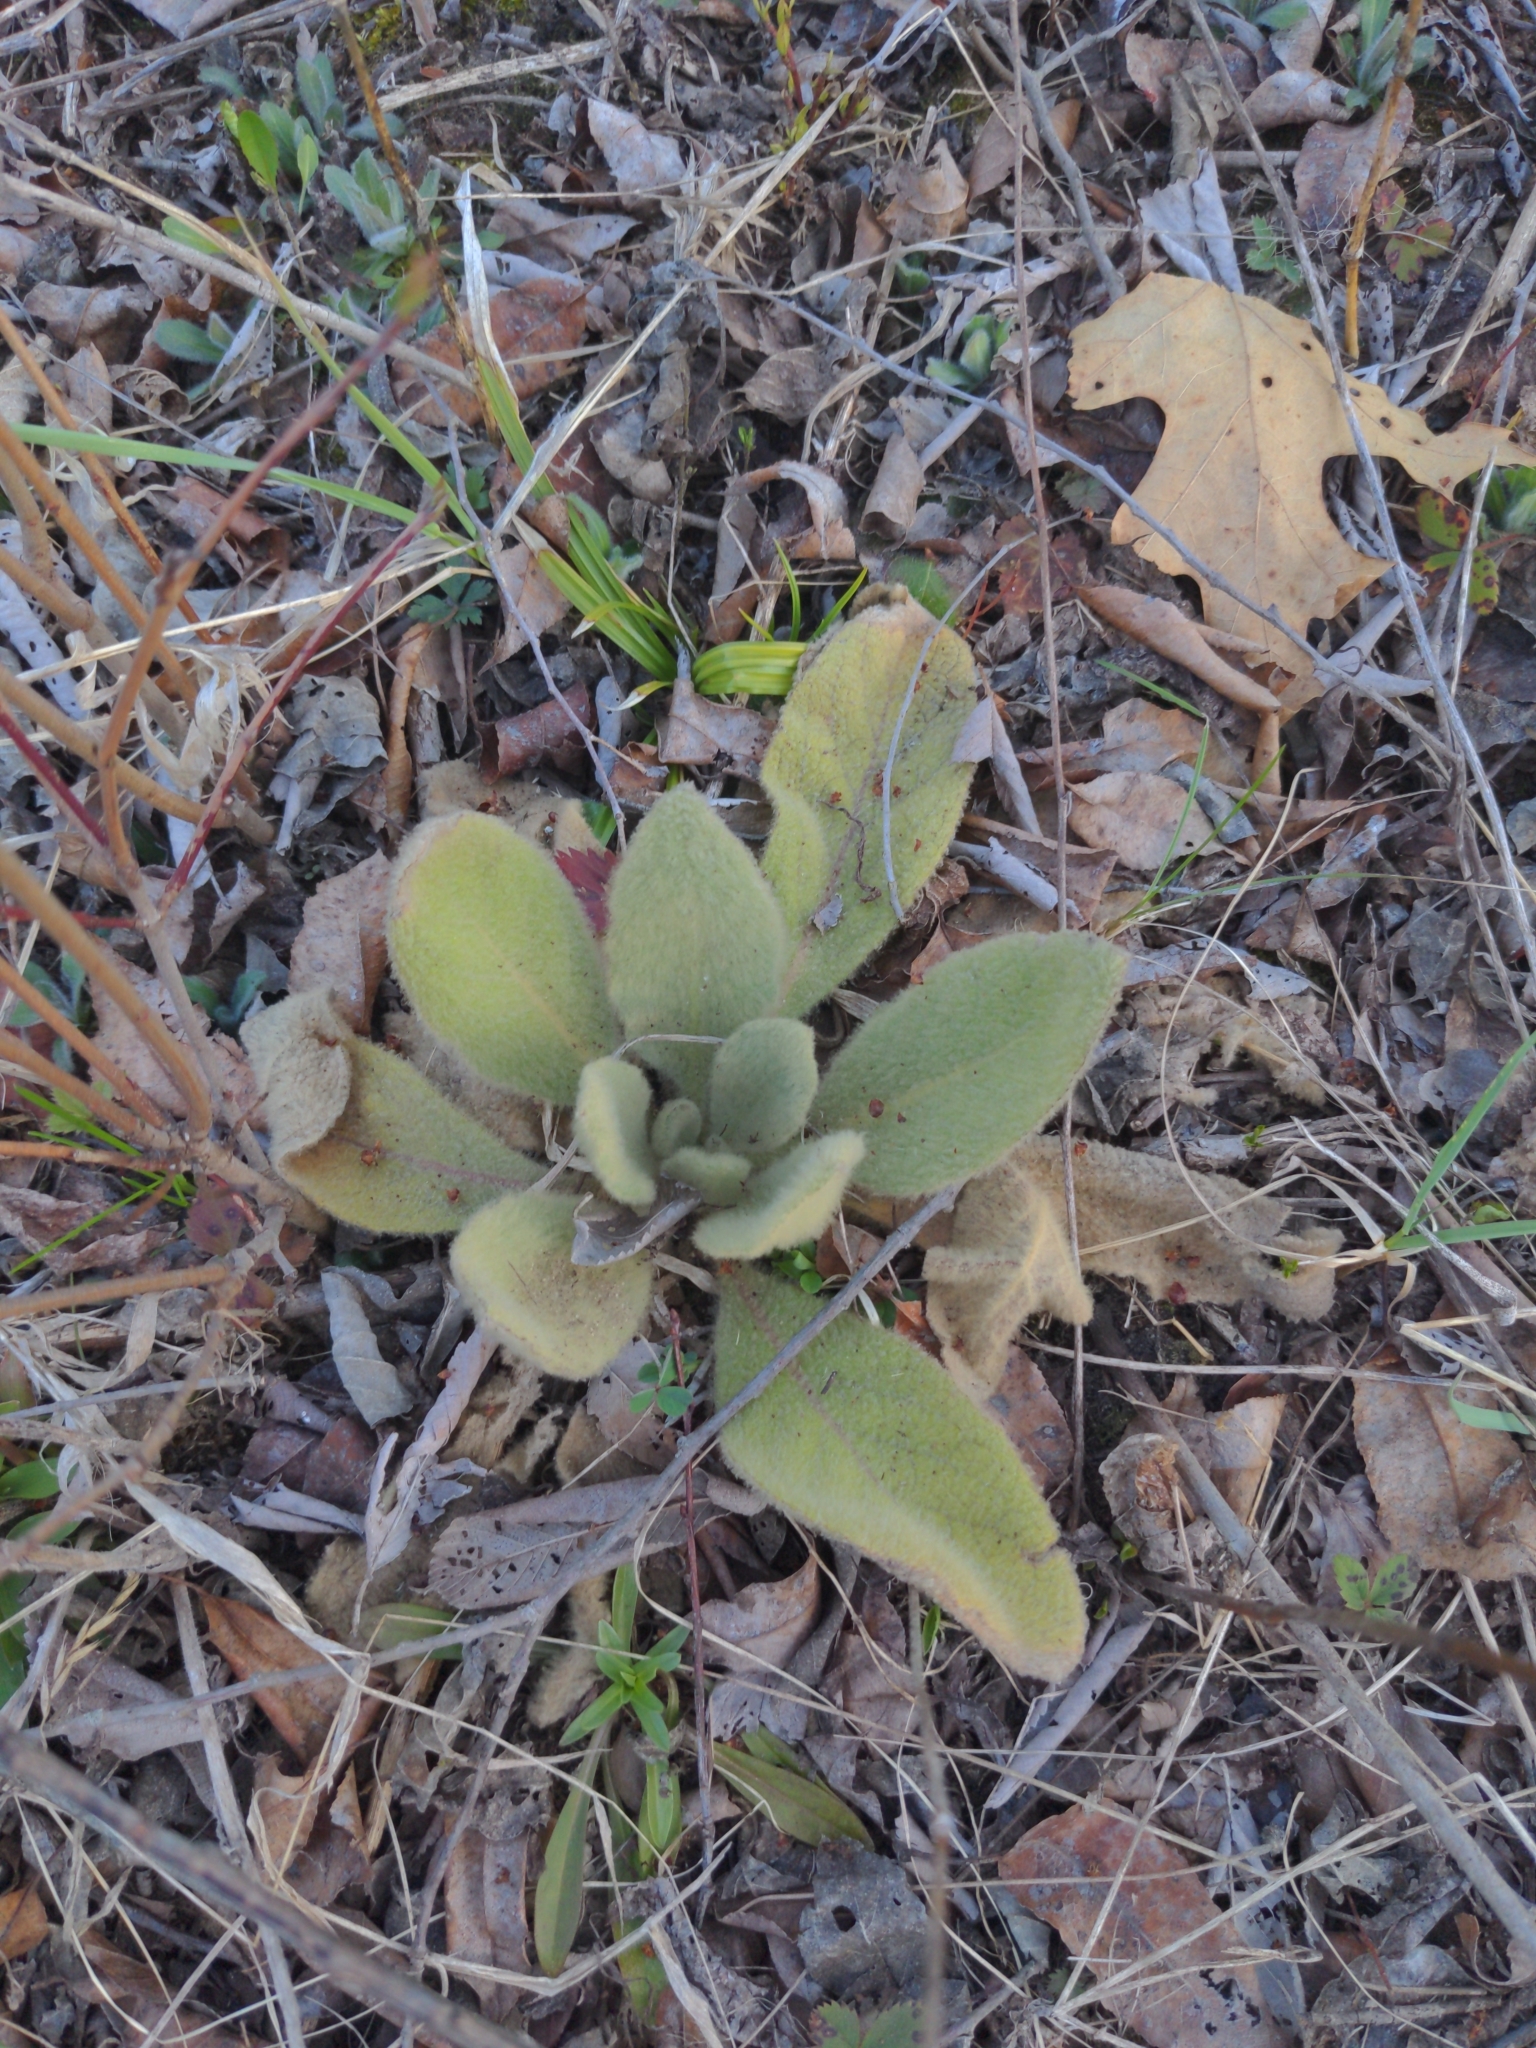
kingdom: Plantae
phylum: Tracheophyta
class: Magnoliopsida
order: Lamiales
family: Scrophulariaceae
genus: Verbascum
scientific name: Verbascum thapsus
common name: Common mullein
